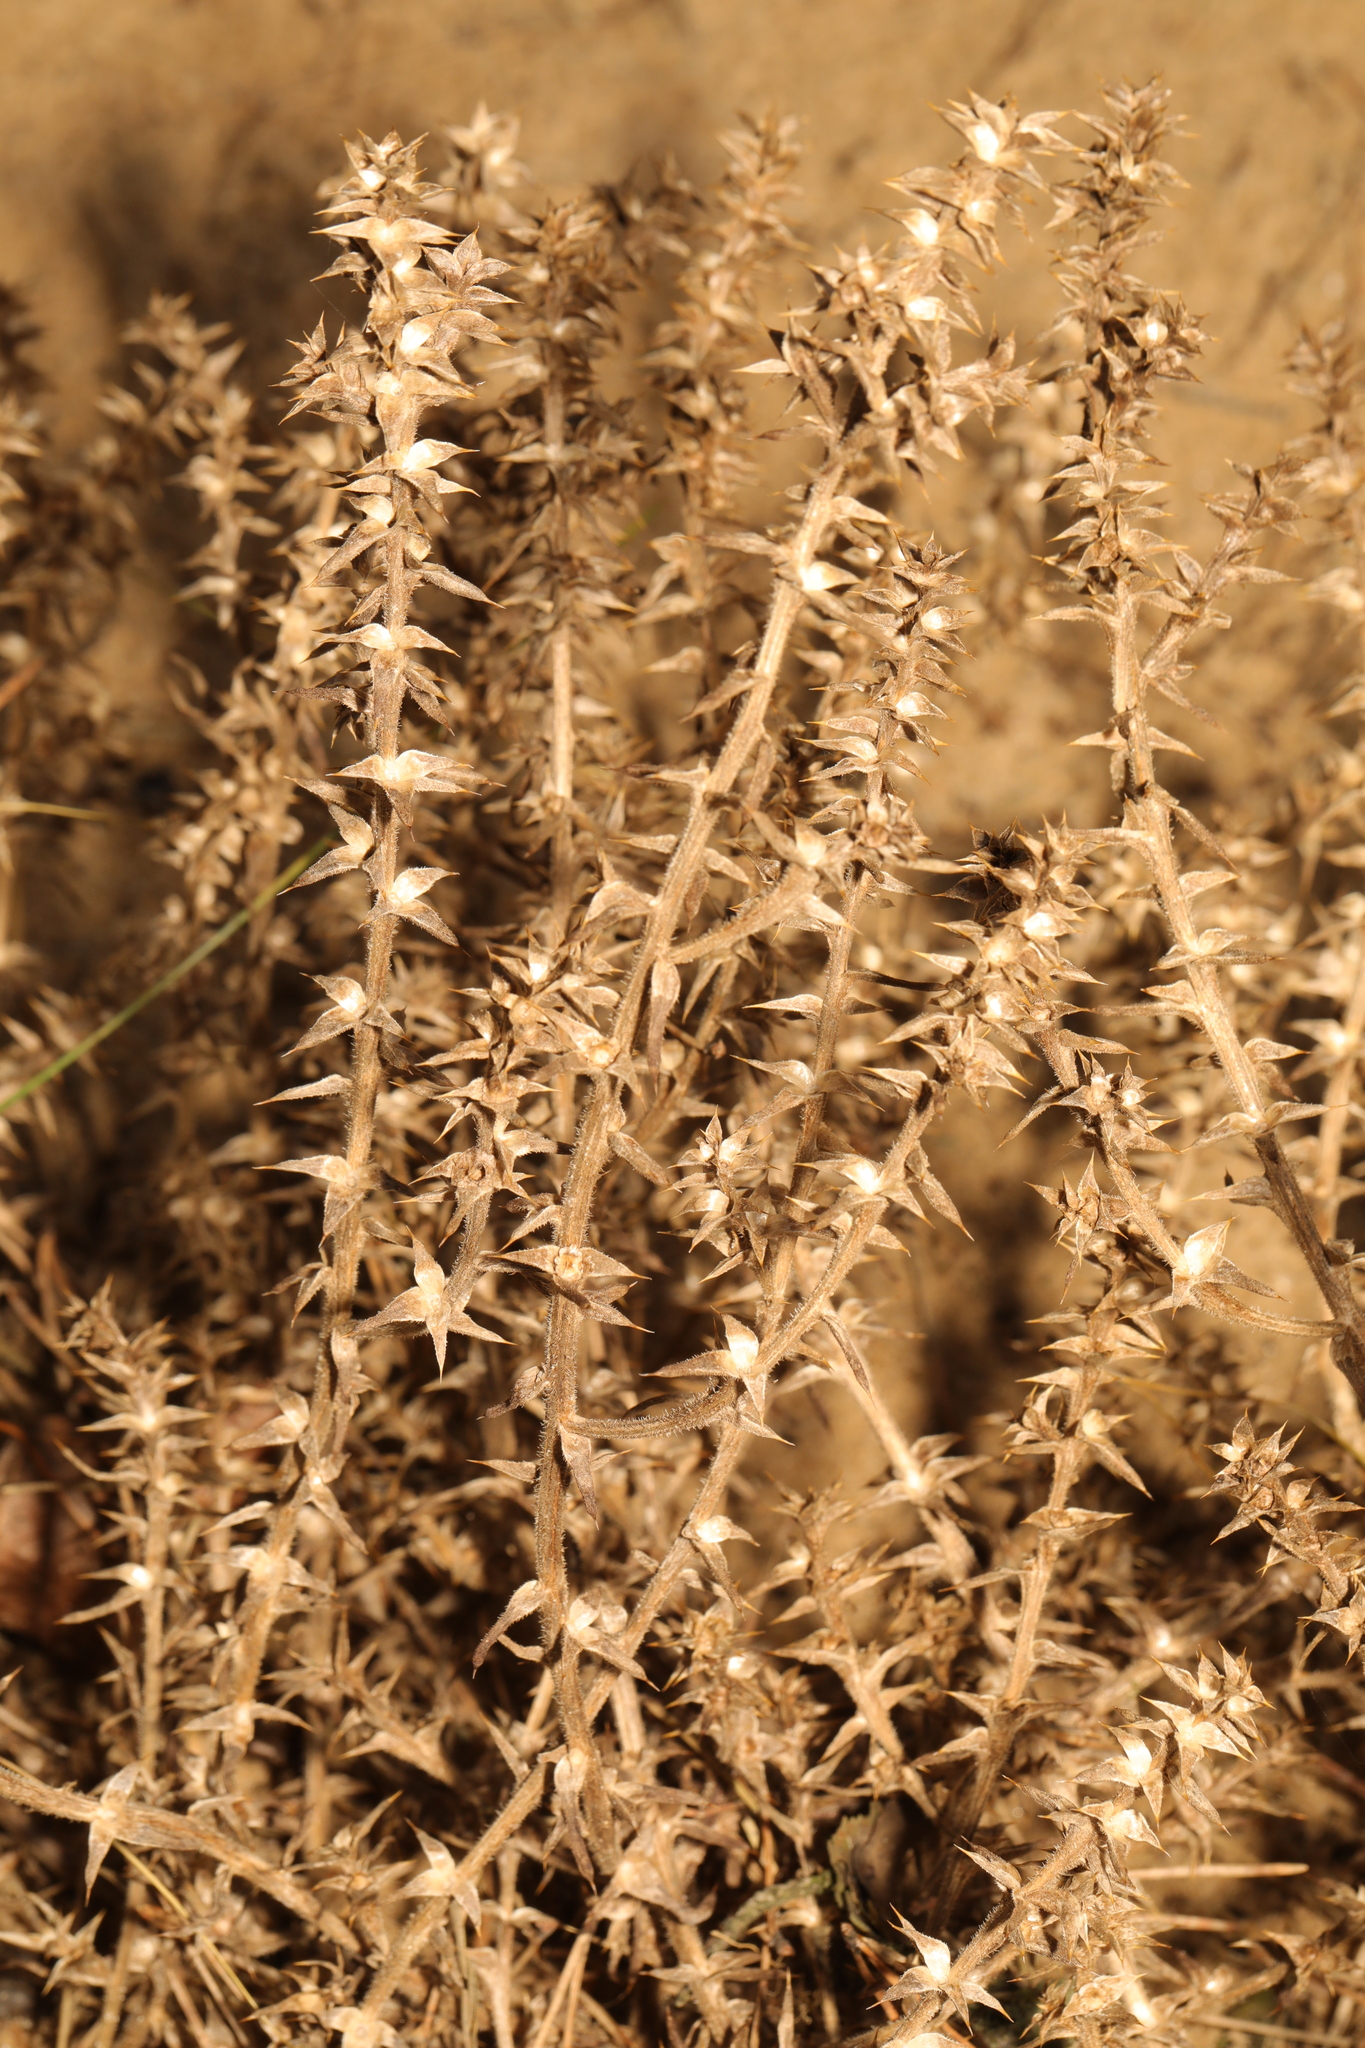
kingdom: Plantae
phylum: Tracheophyta
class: Magnoliopsida
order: Caryophyllales
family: Amaranthaceae
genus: Salsola
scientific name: Salsola kali
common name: Saltwort
